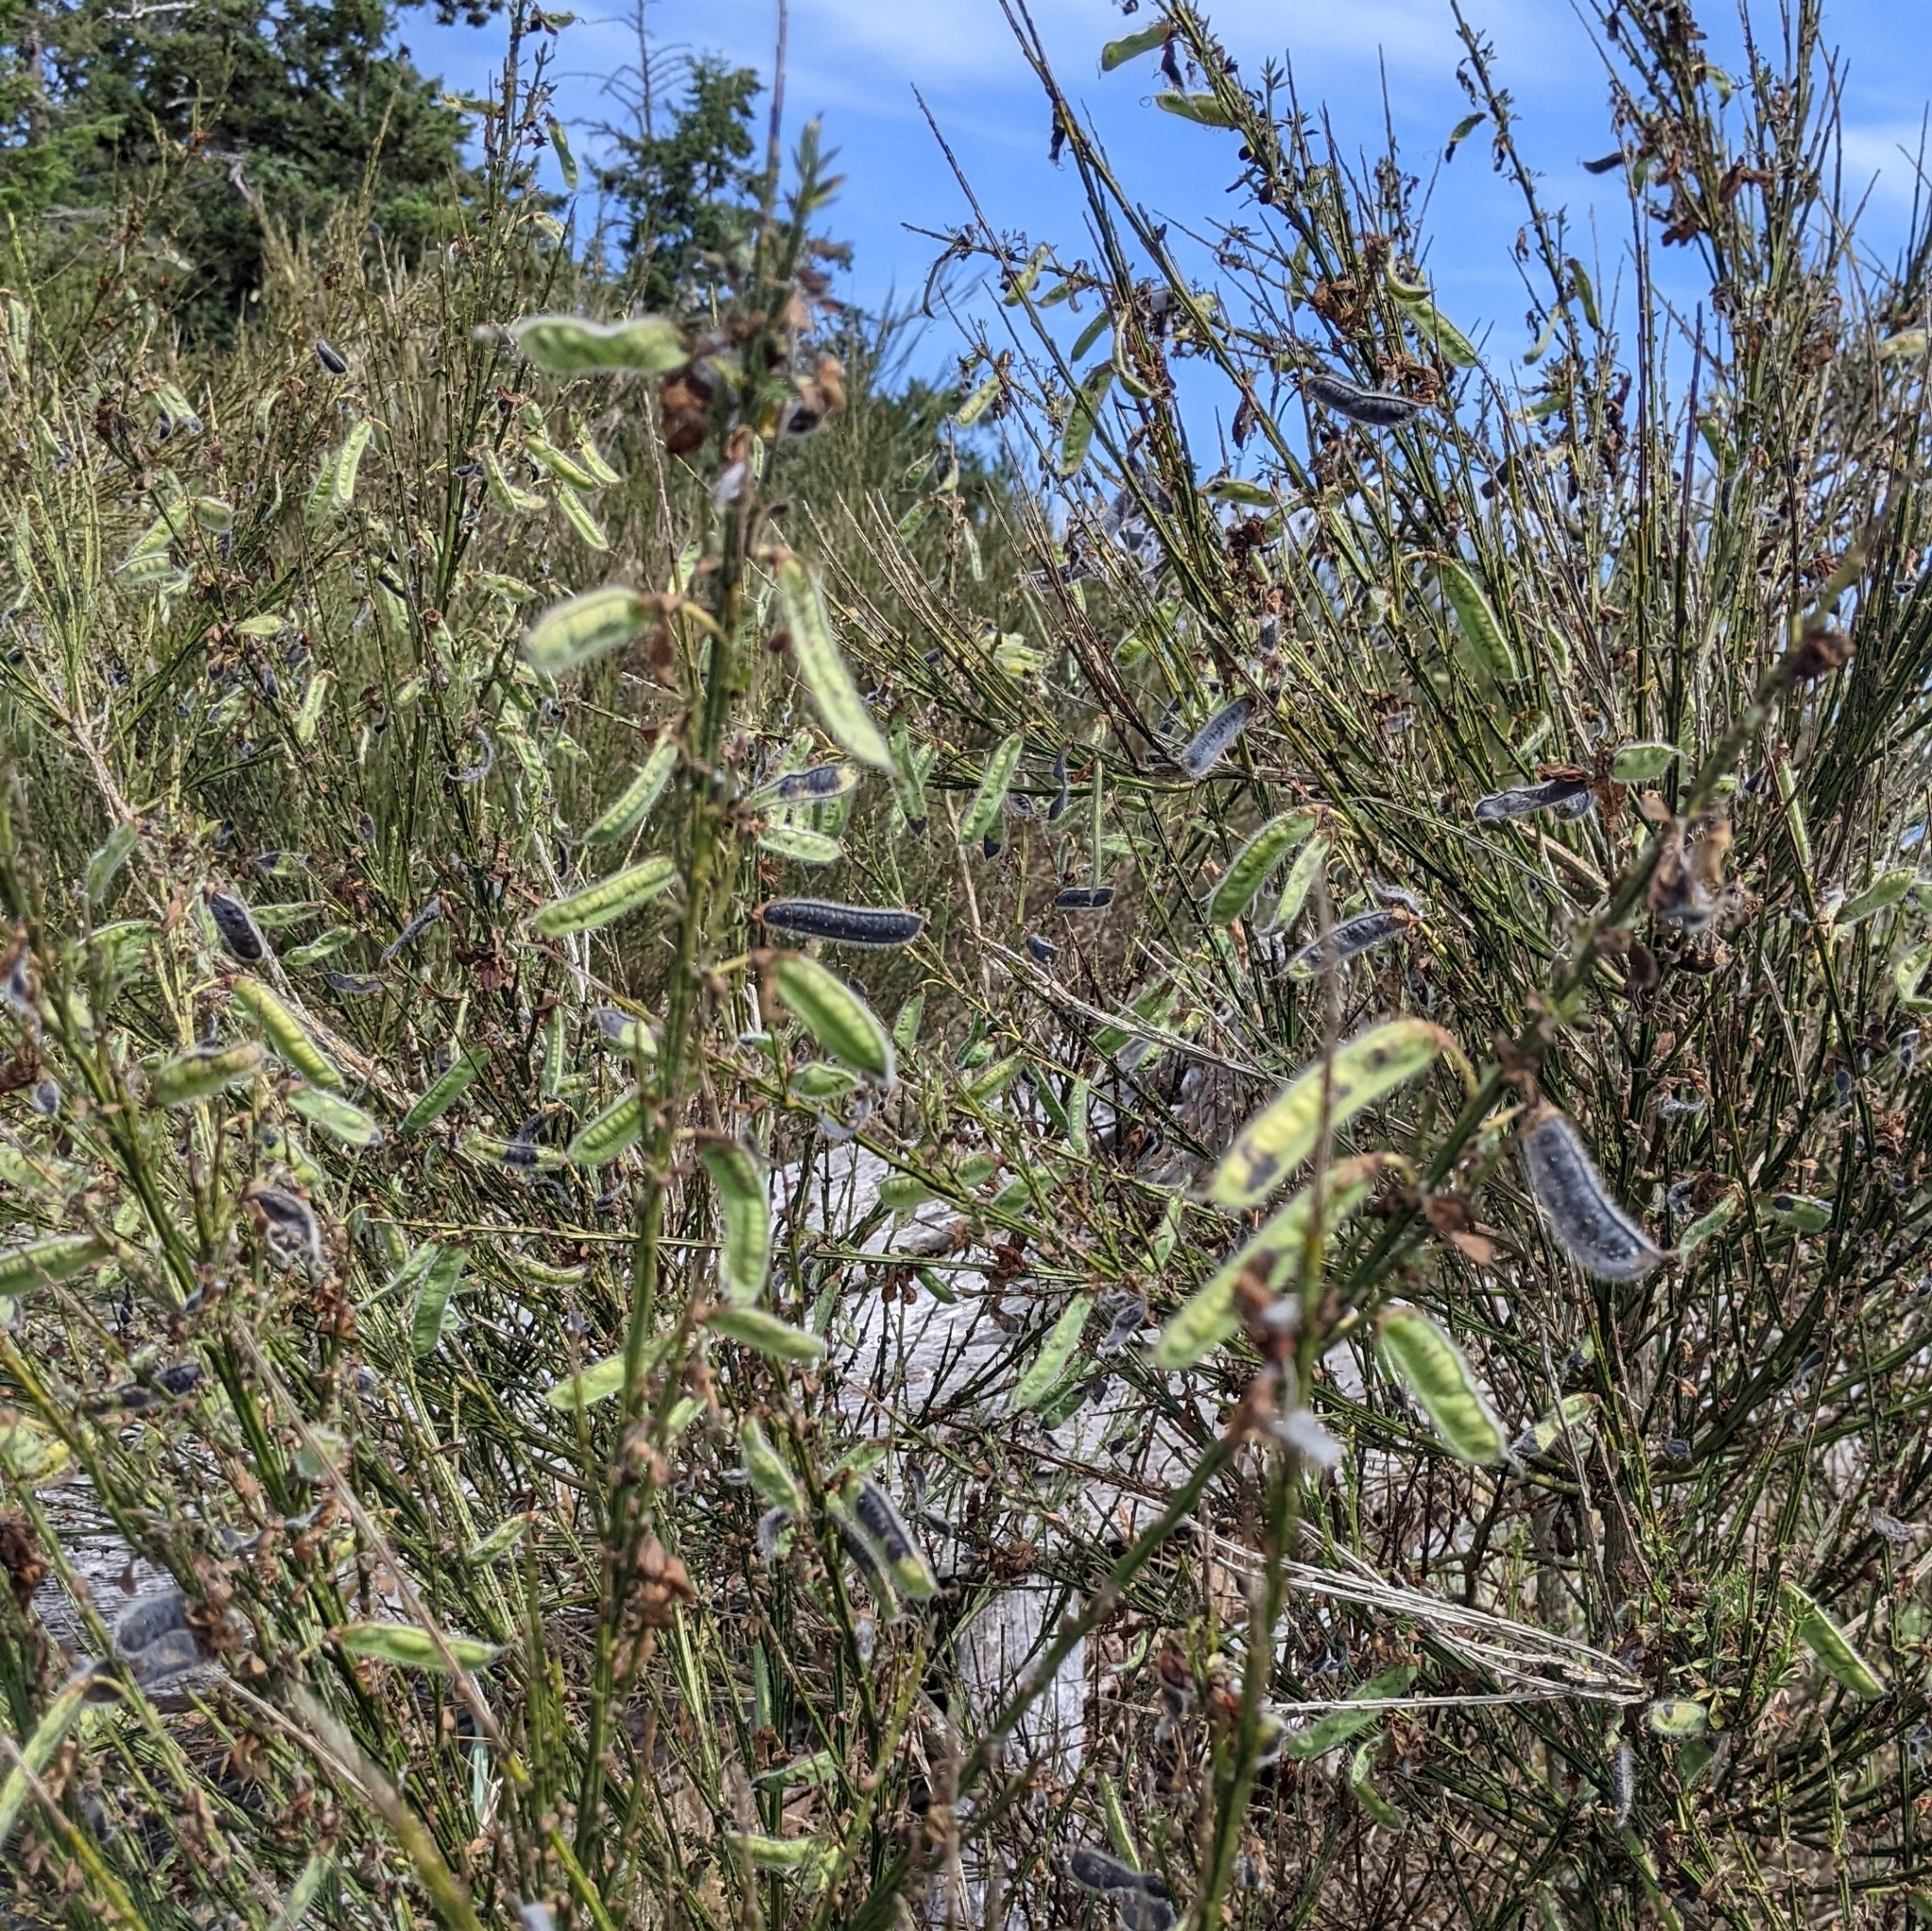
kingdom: Plantae
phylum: Tracheophyta
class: Magnoliopsida
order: Fabales
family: Fabaceae
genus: Cytisus
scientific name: Cytisus scoparius
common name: Scotch broom
